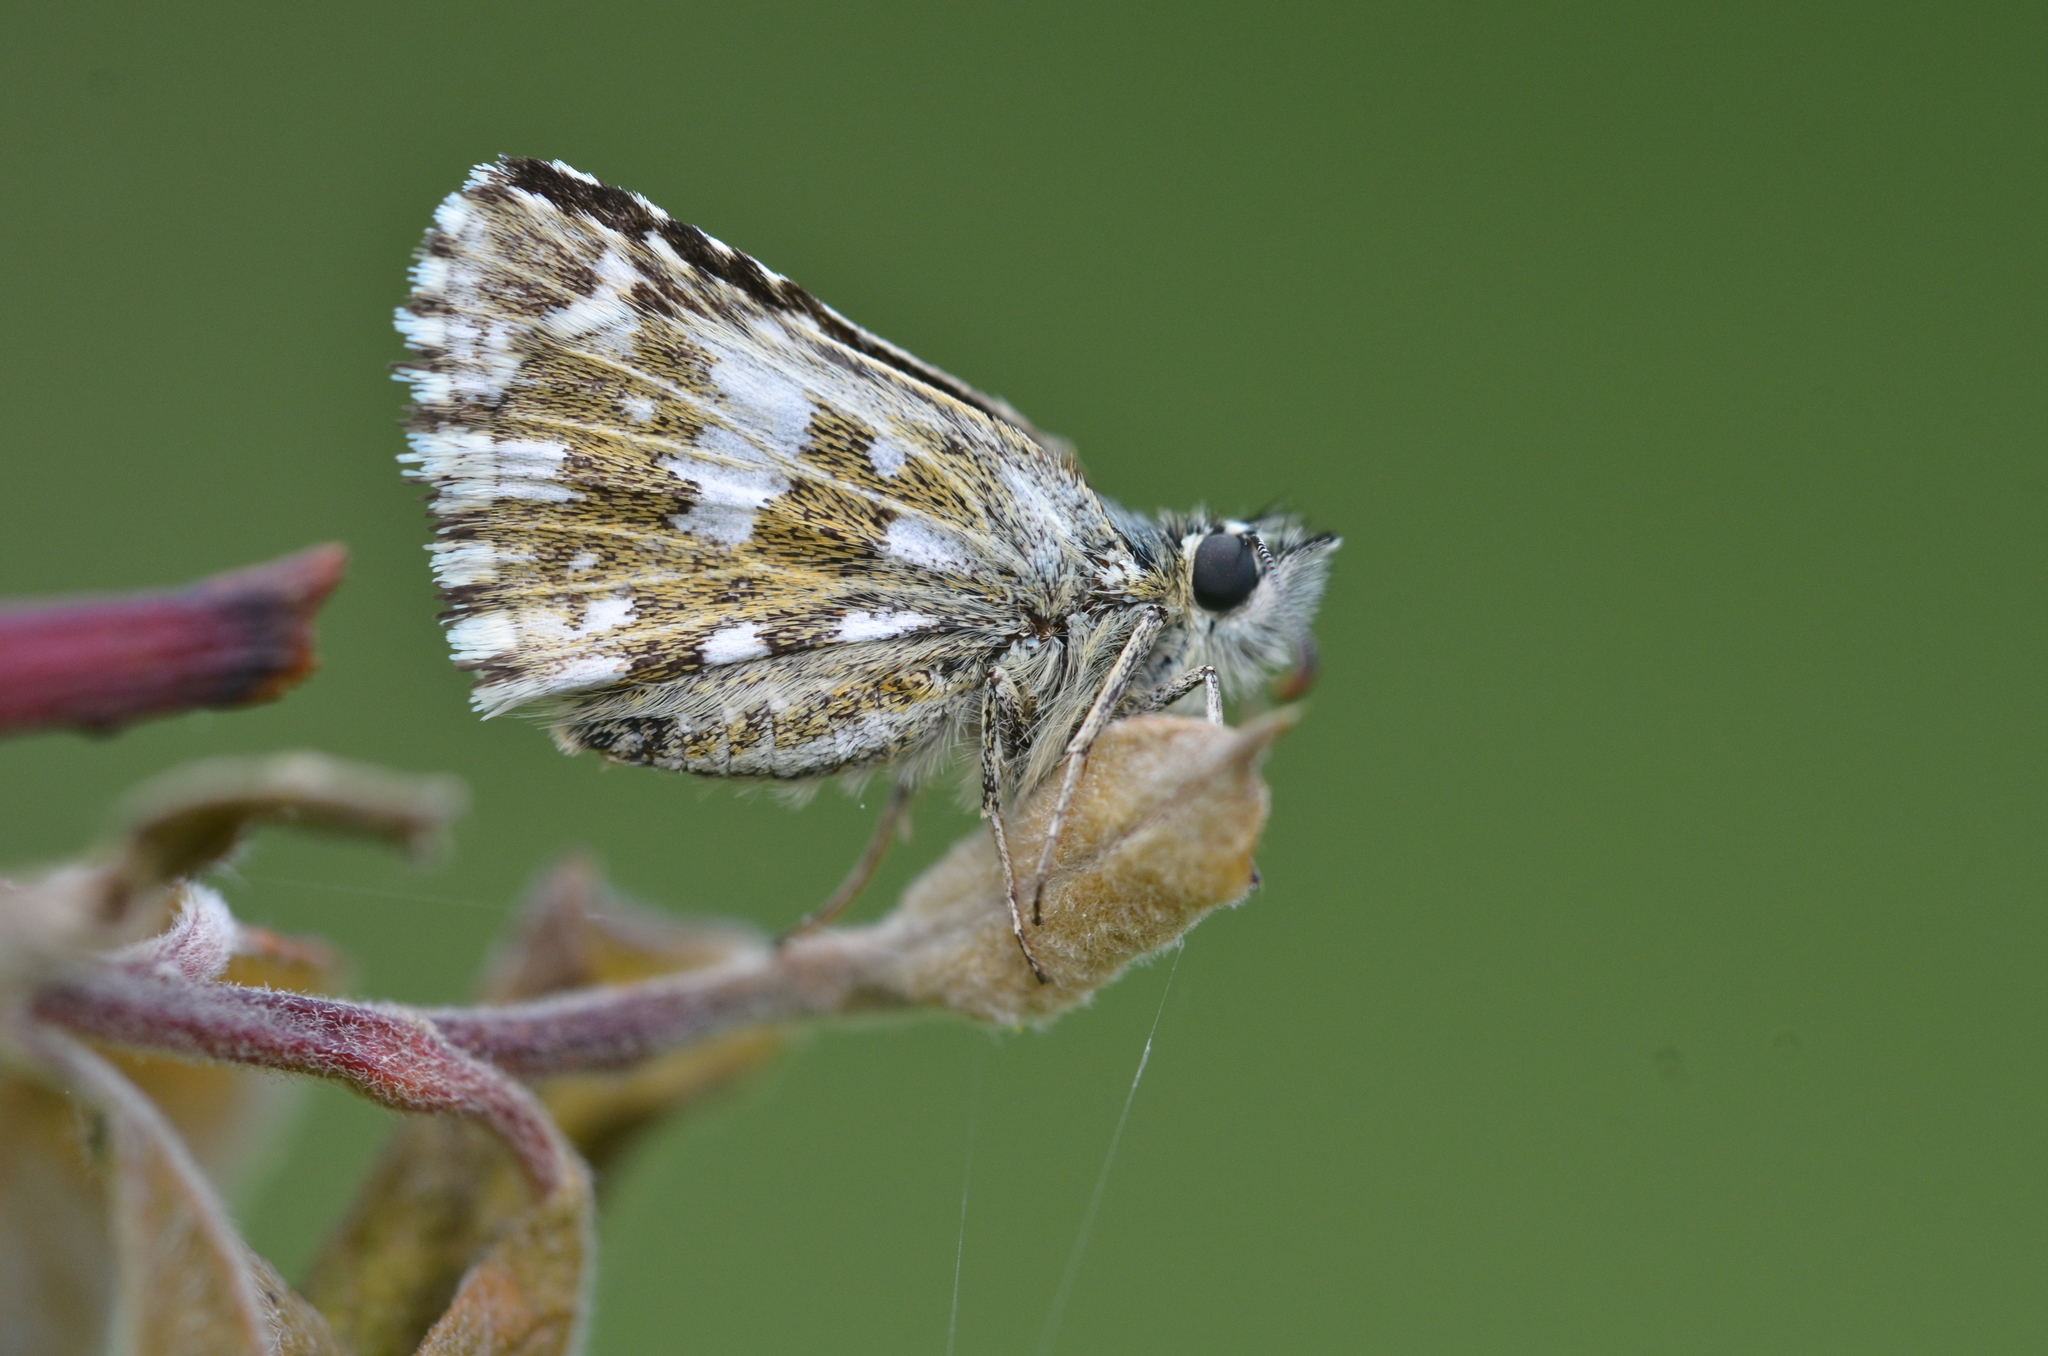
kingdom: Animalia
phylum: Arthropoda
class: Insecta
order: Lepidoptera
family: Hesperiidae
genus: Pyrgus
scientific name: Pyrgus malvae
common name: Grizzled skipper
